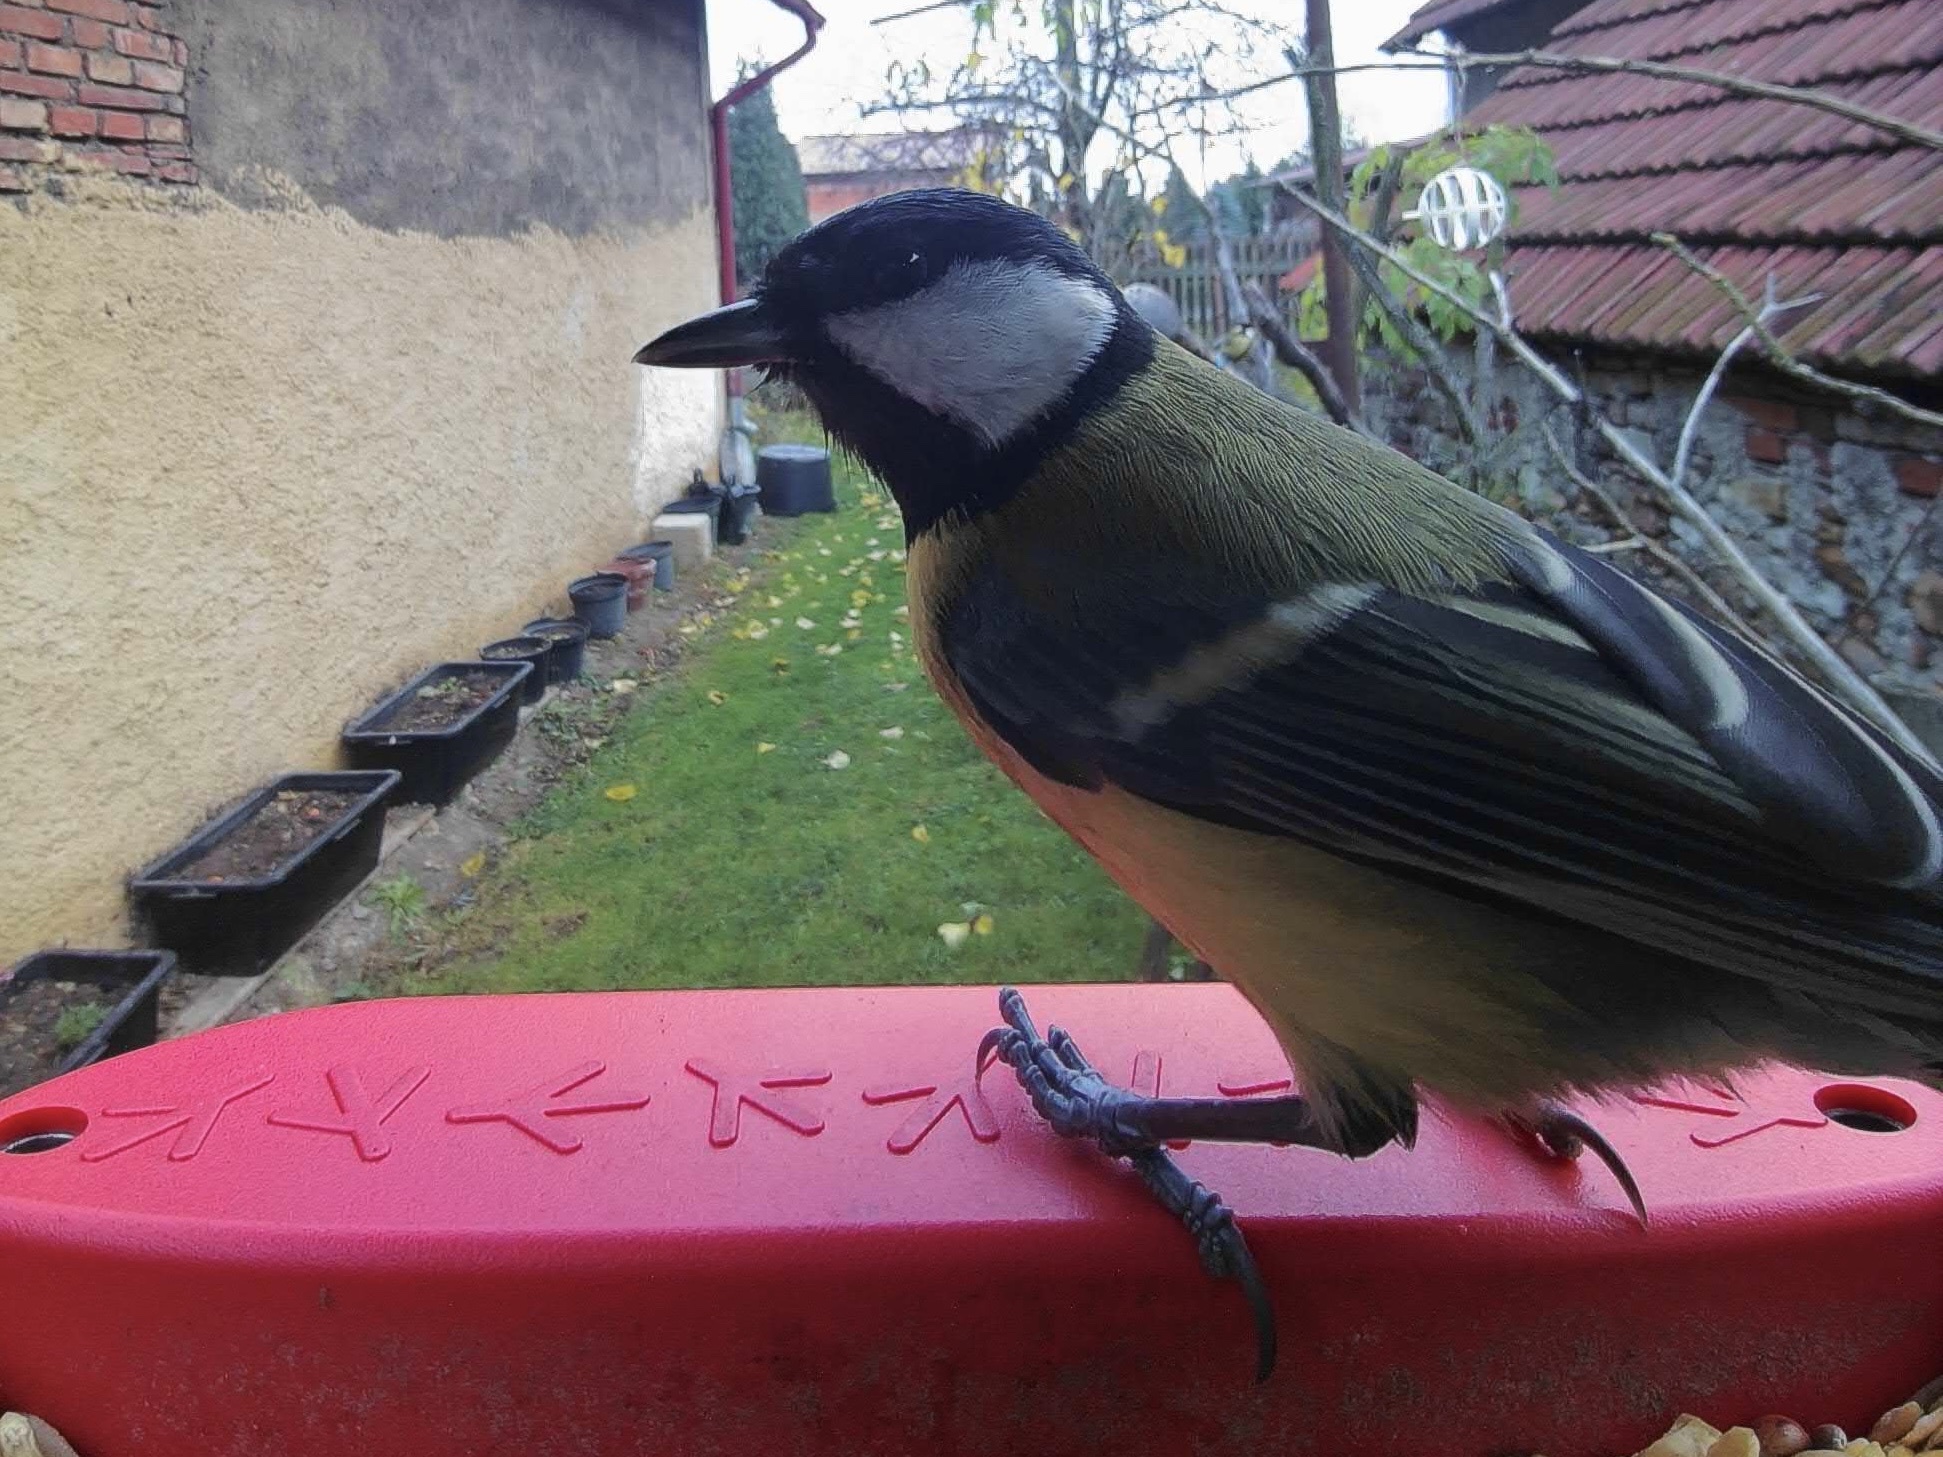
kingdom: Animalia
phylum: Chordata
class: Aves
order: Passeriformes
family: Paridae
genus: Parus
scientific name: Parus major
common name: Great tit
